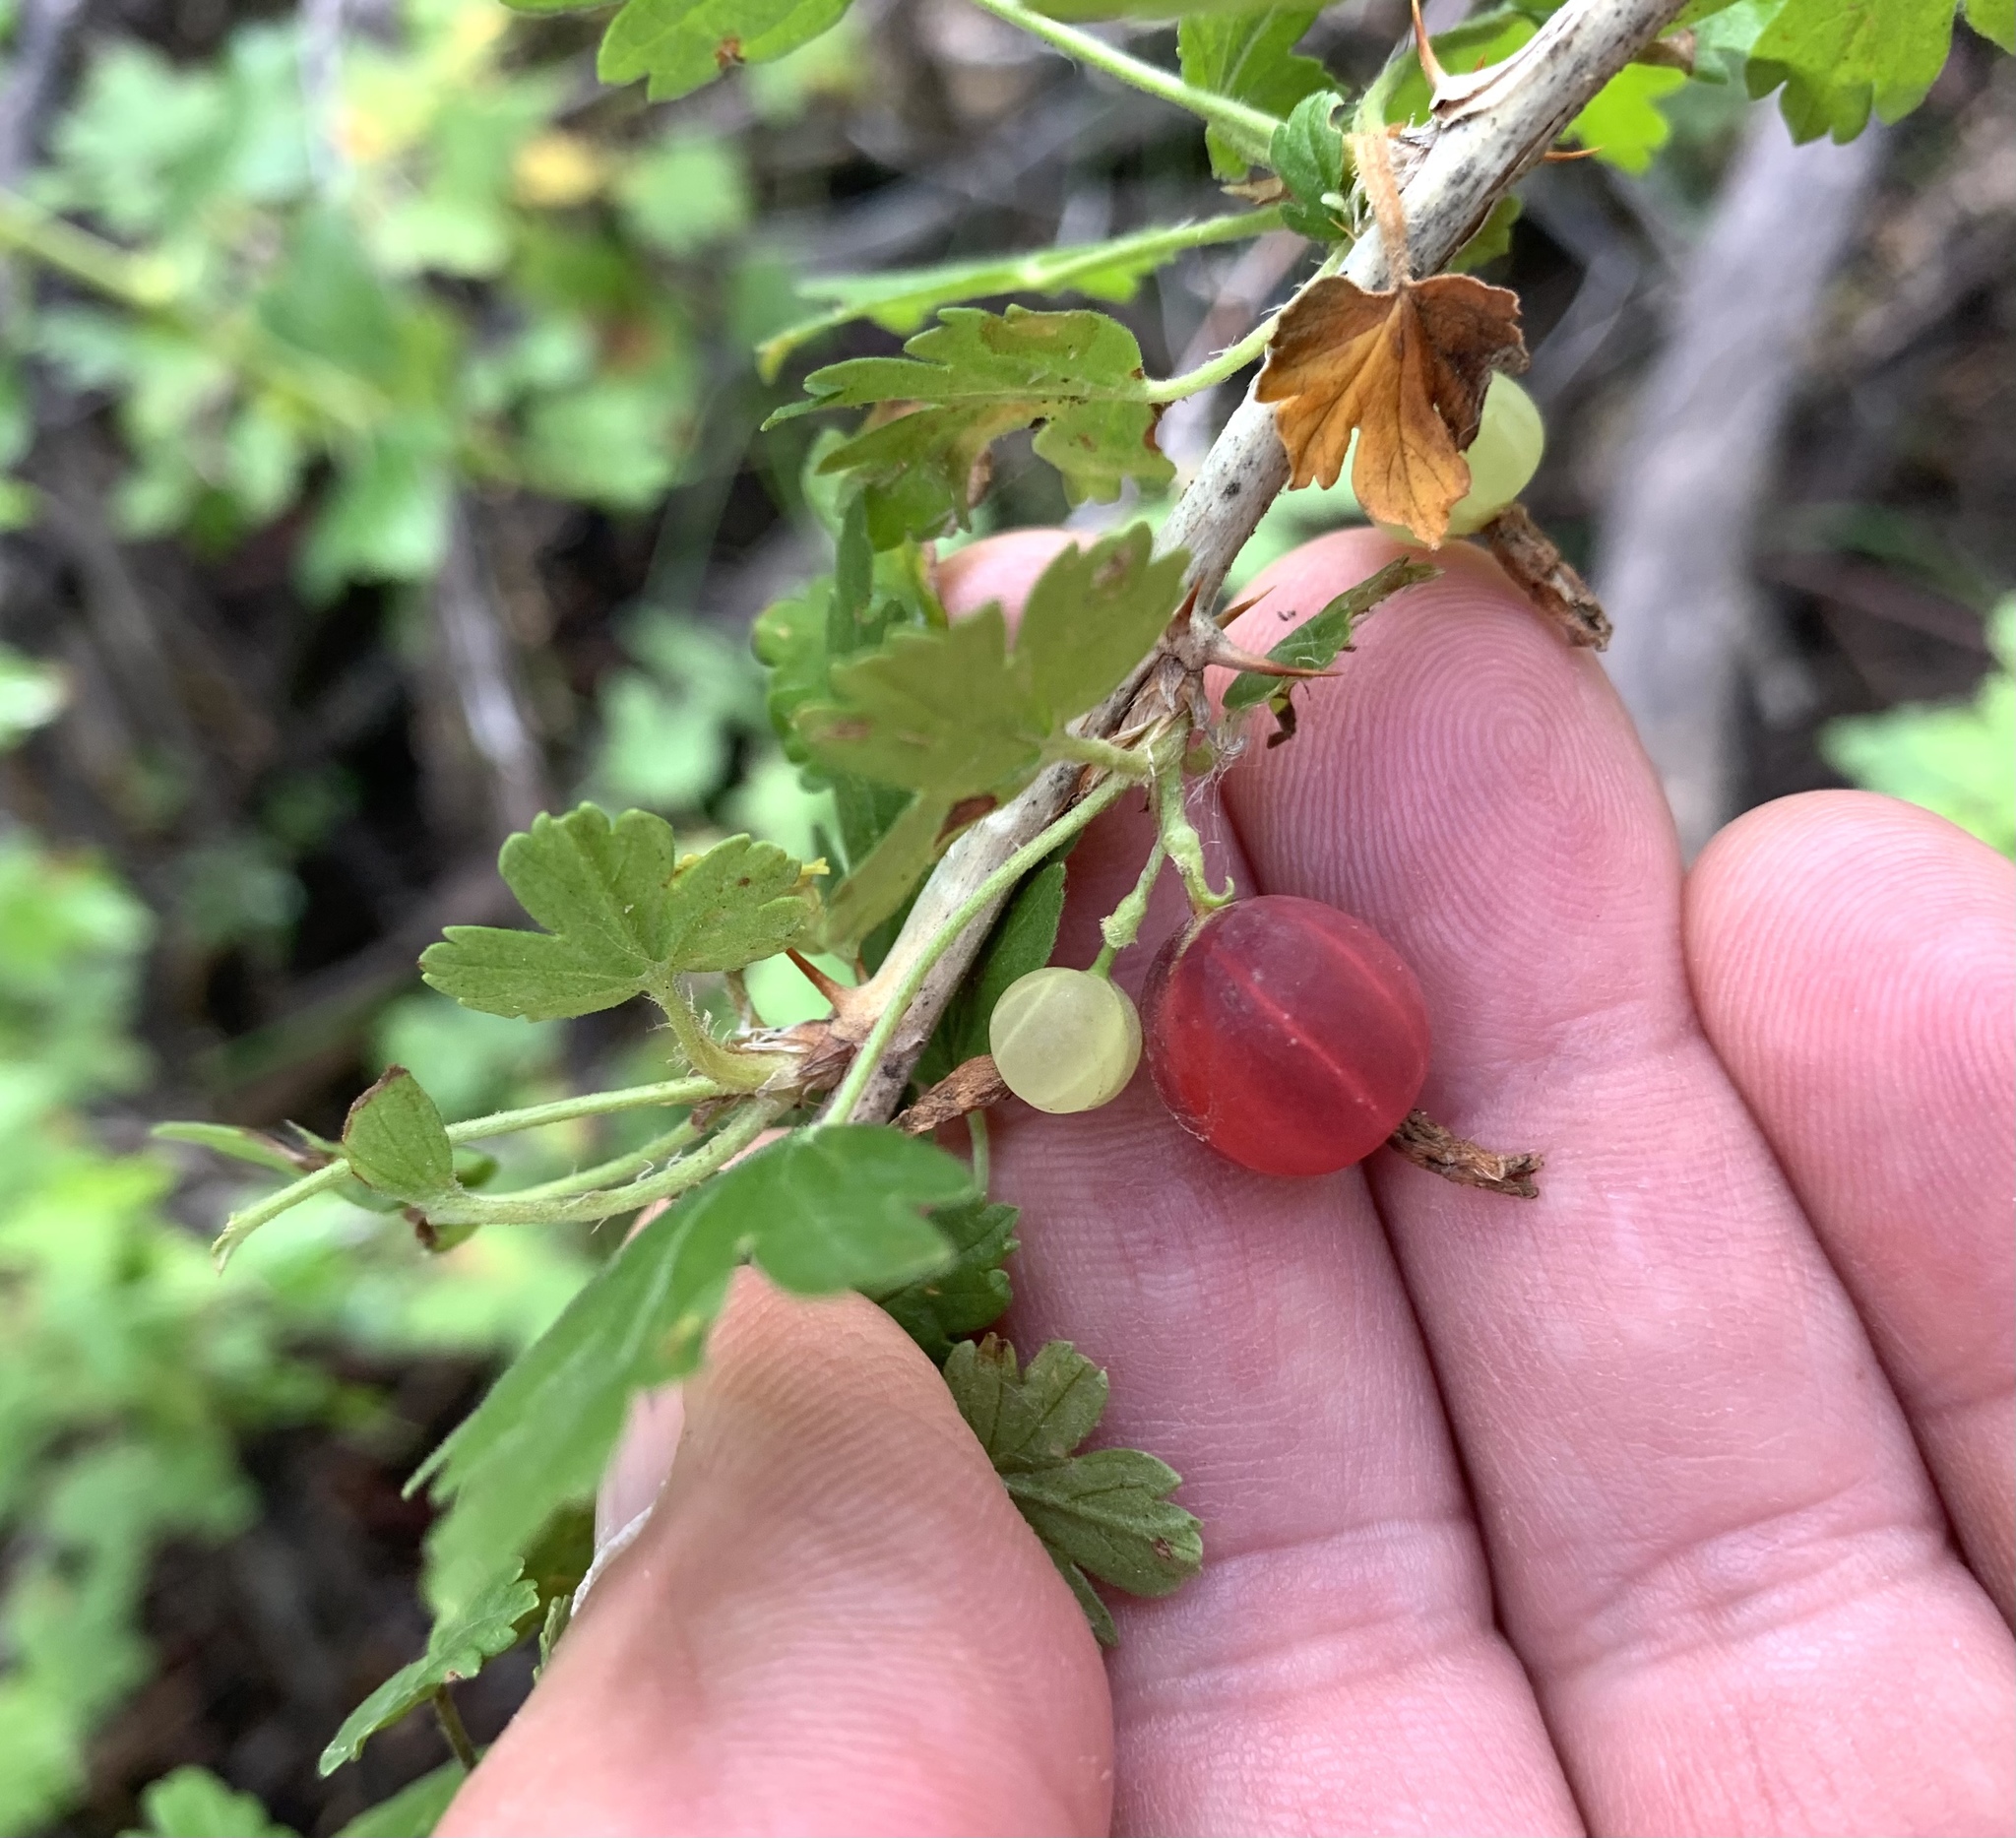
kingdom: Plantae
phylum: Tracheophyta
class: Magnoliopsida
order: Saxifragales
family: Grossulariaceae
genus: Ribes
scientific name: Ribes cereum
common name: Wax currant
